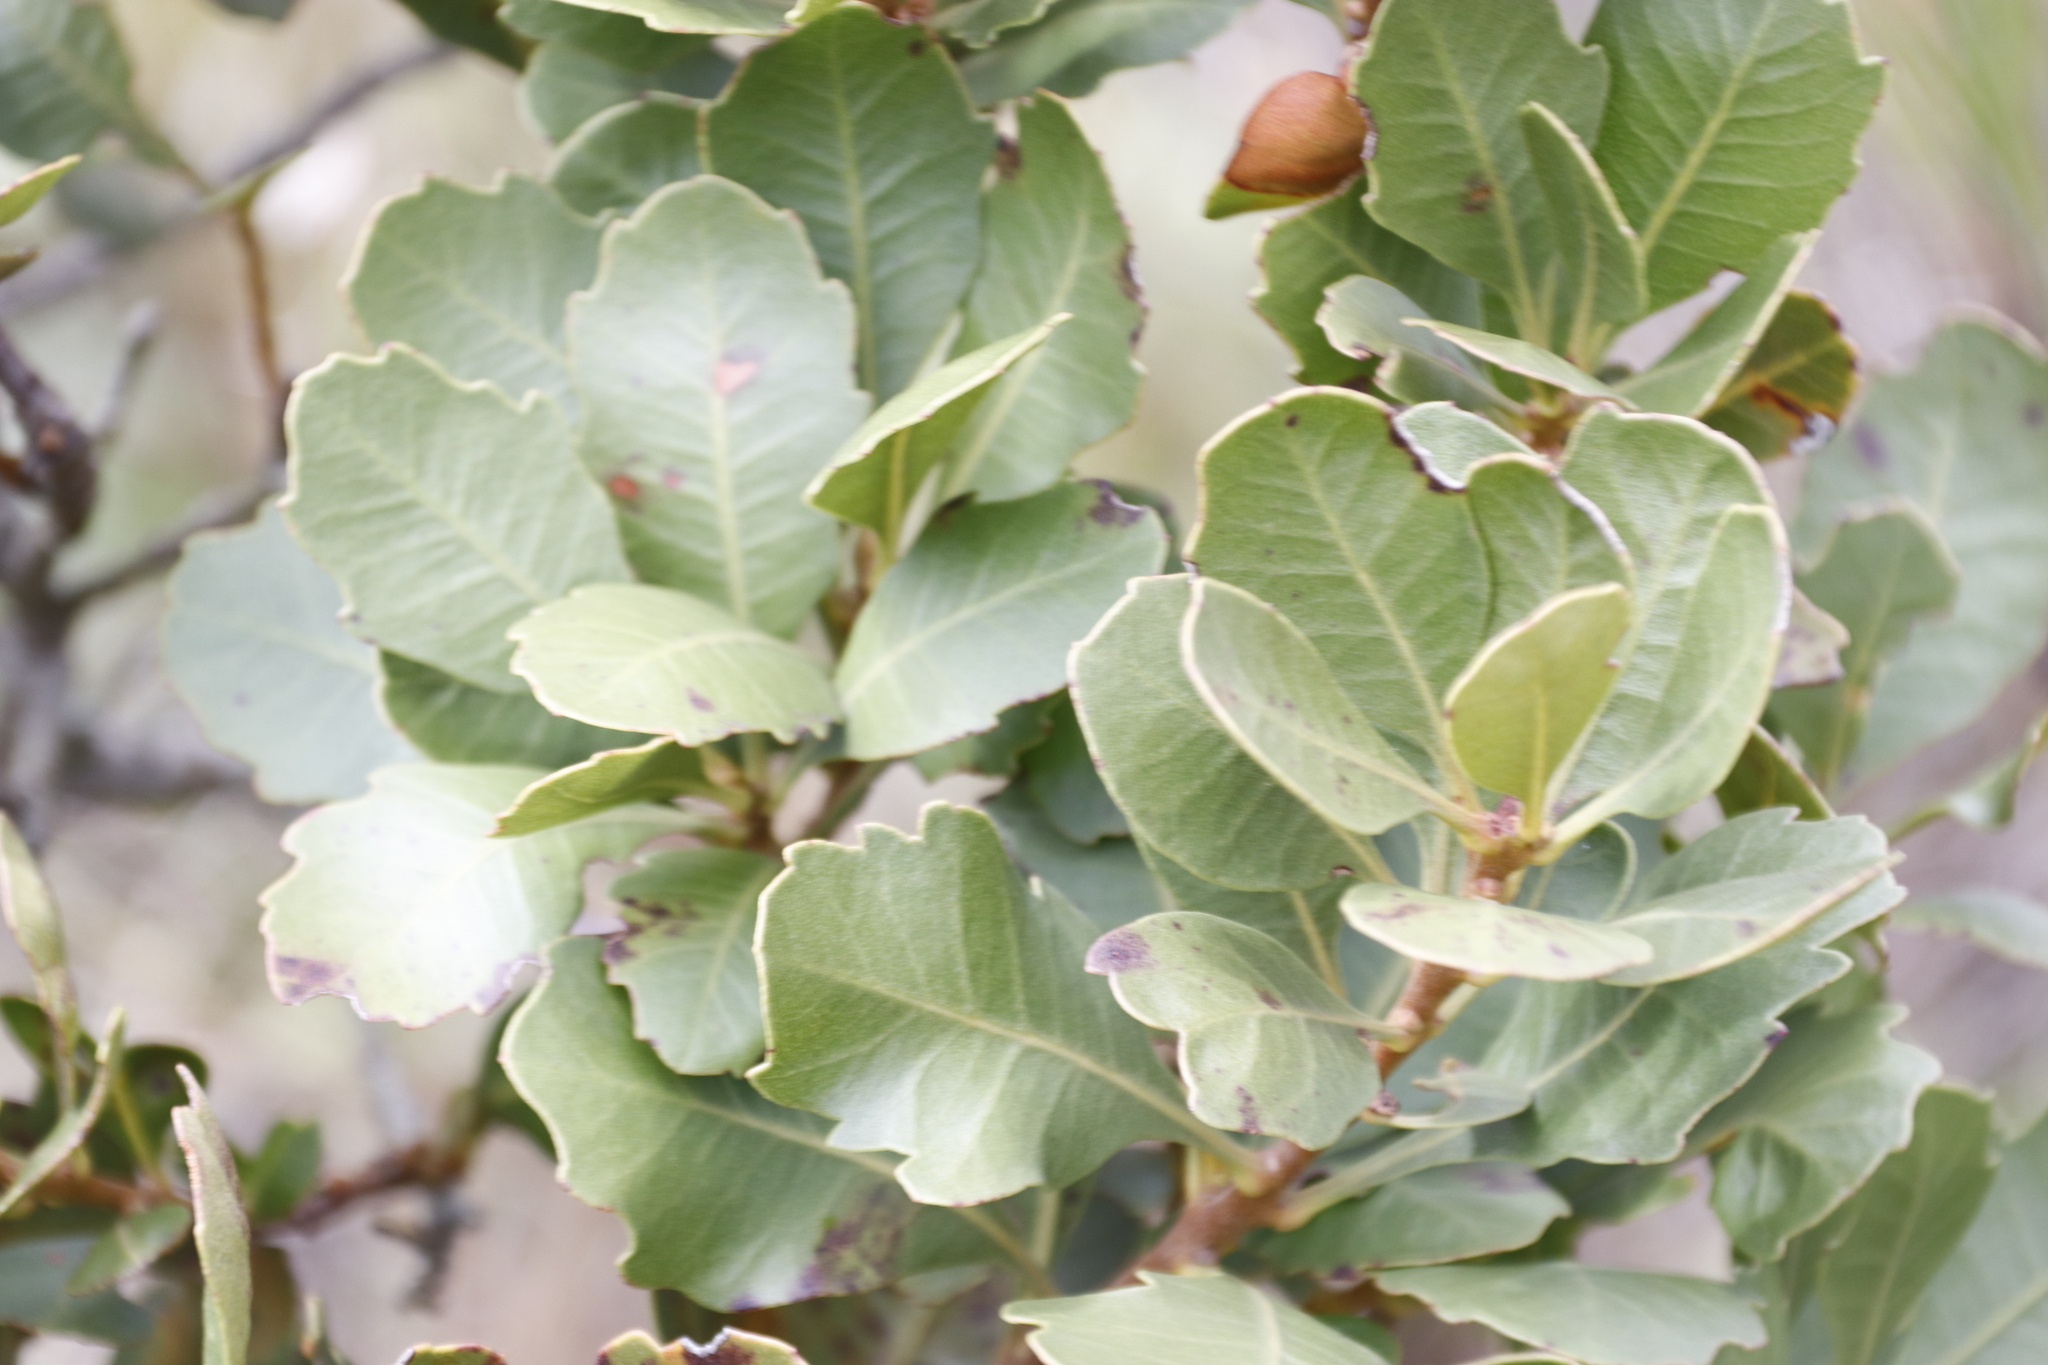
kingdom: Plantae
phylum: Tracheophyta
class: Magnoliopsida
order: Fagales
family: Myricaceae
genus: Morella
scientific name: Morella diversifolia
